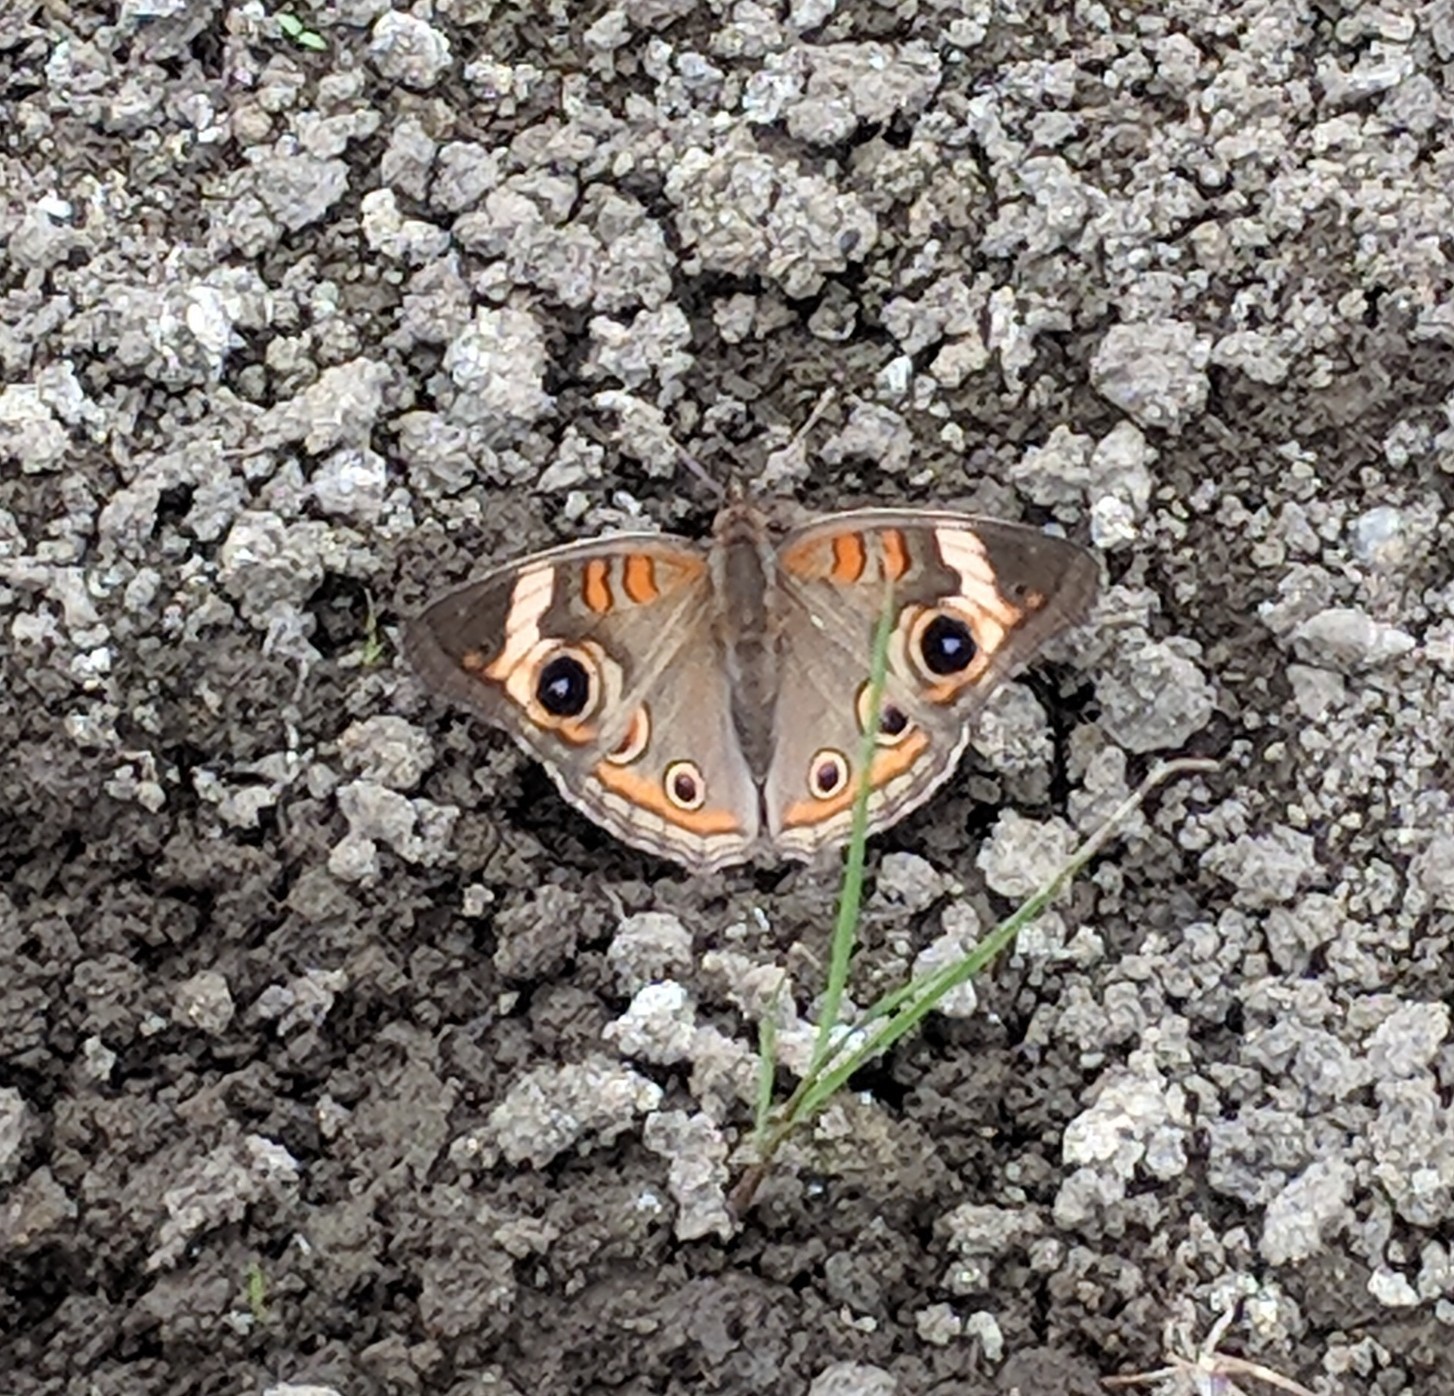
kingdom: Animalia
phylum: Arthropoda
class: Insecta
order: Lepidoptera
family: Nymphalidae
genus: Junonia
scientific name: Junonia coenia
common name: Common buckeye
